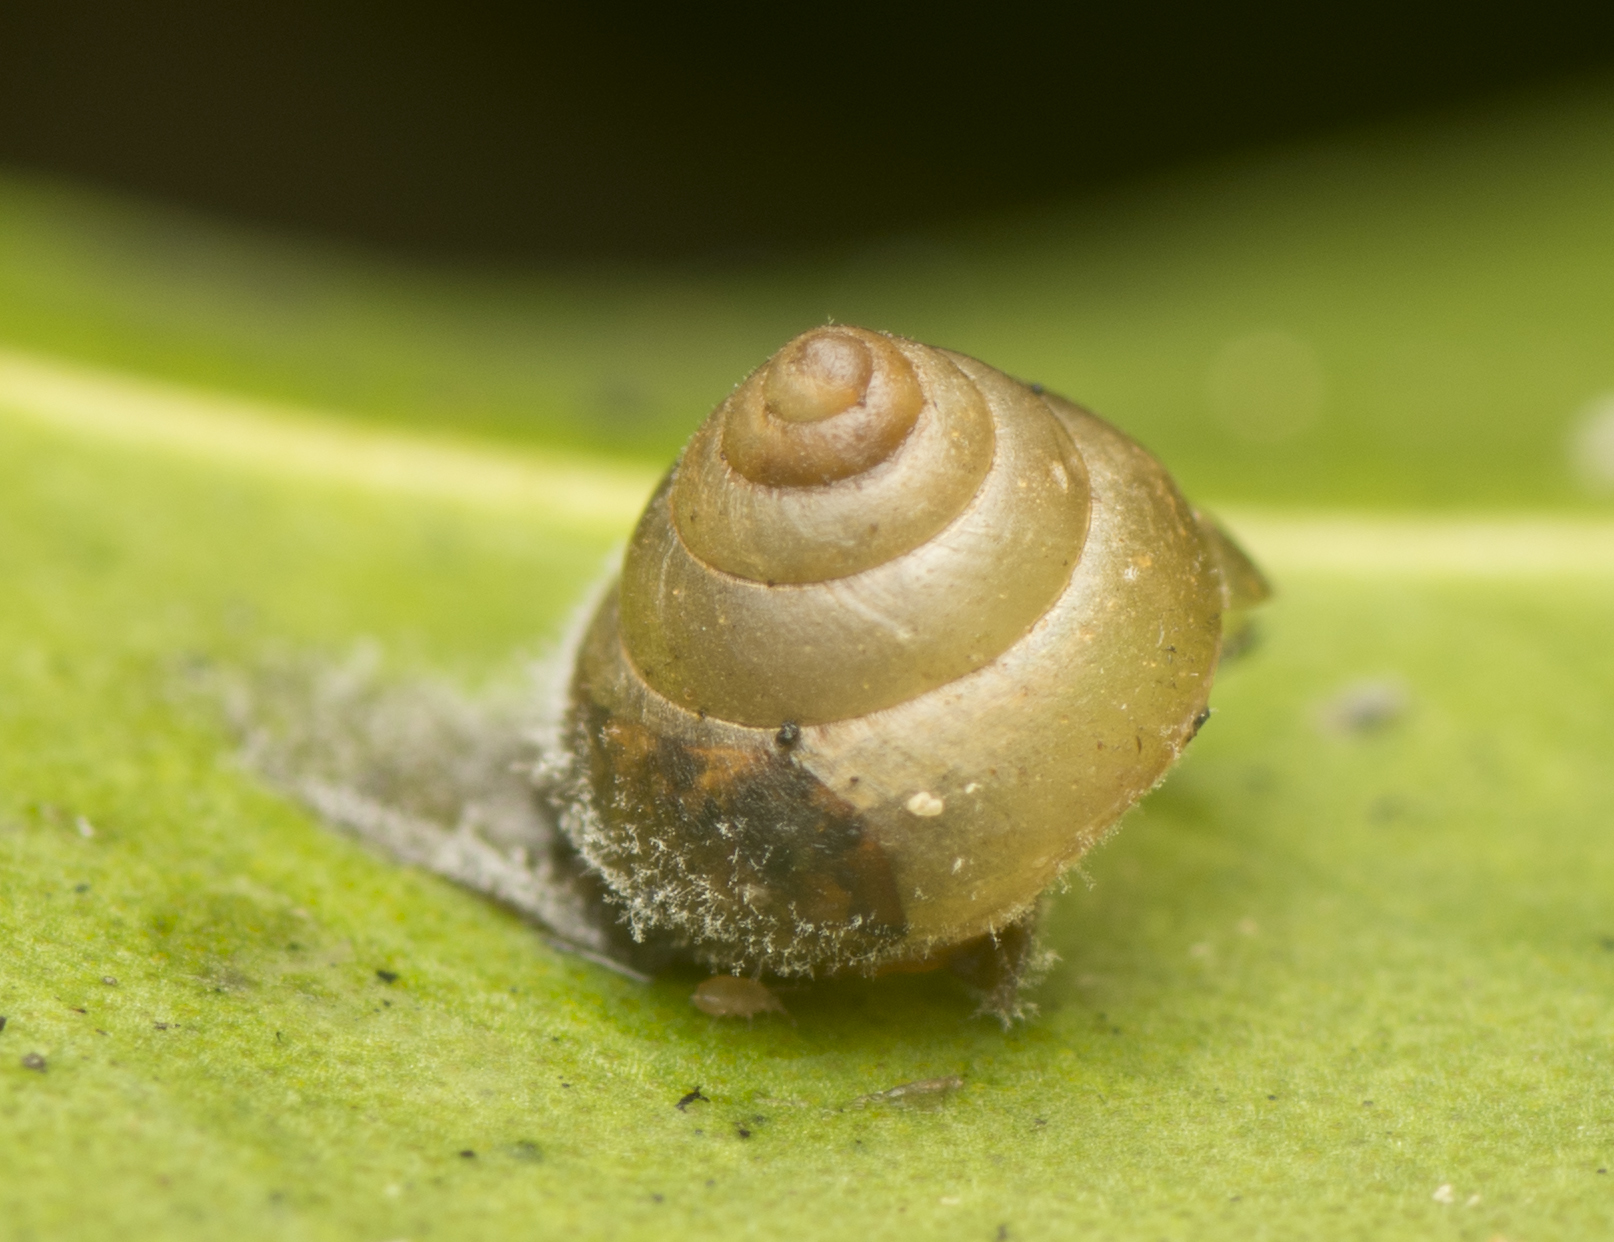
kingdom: Animalia
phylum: Mollusca
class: Gastropoda
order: Stylommatophora
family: Euconulidae
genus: Coneuplecta
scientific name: Coneuplecta calculosa
